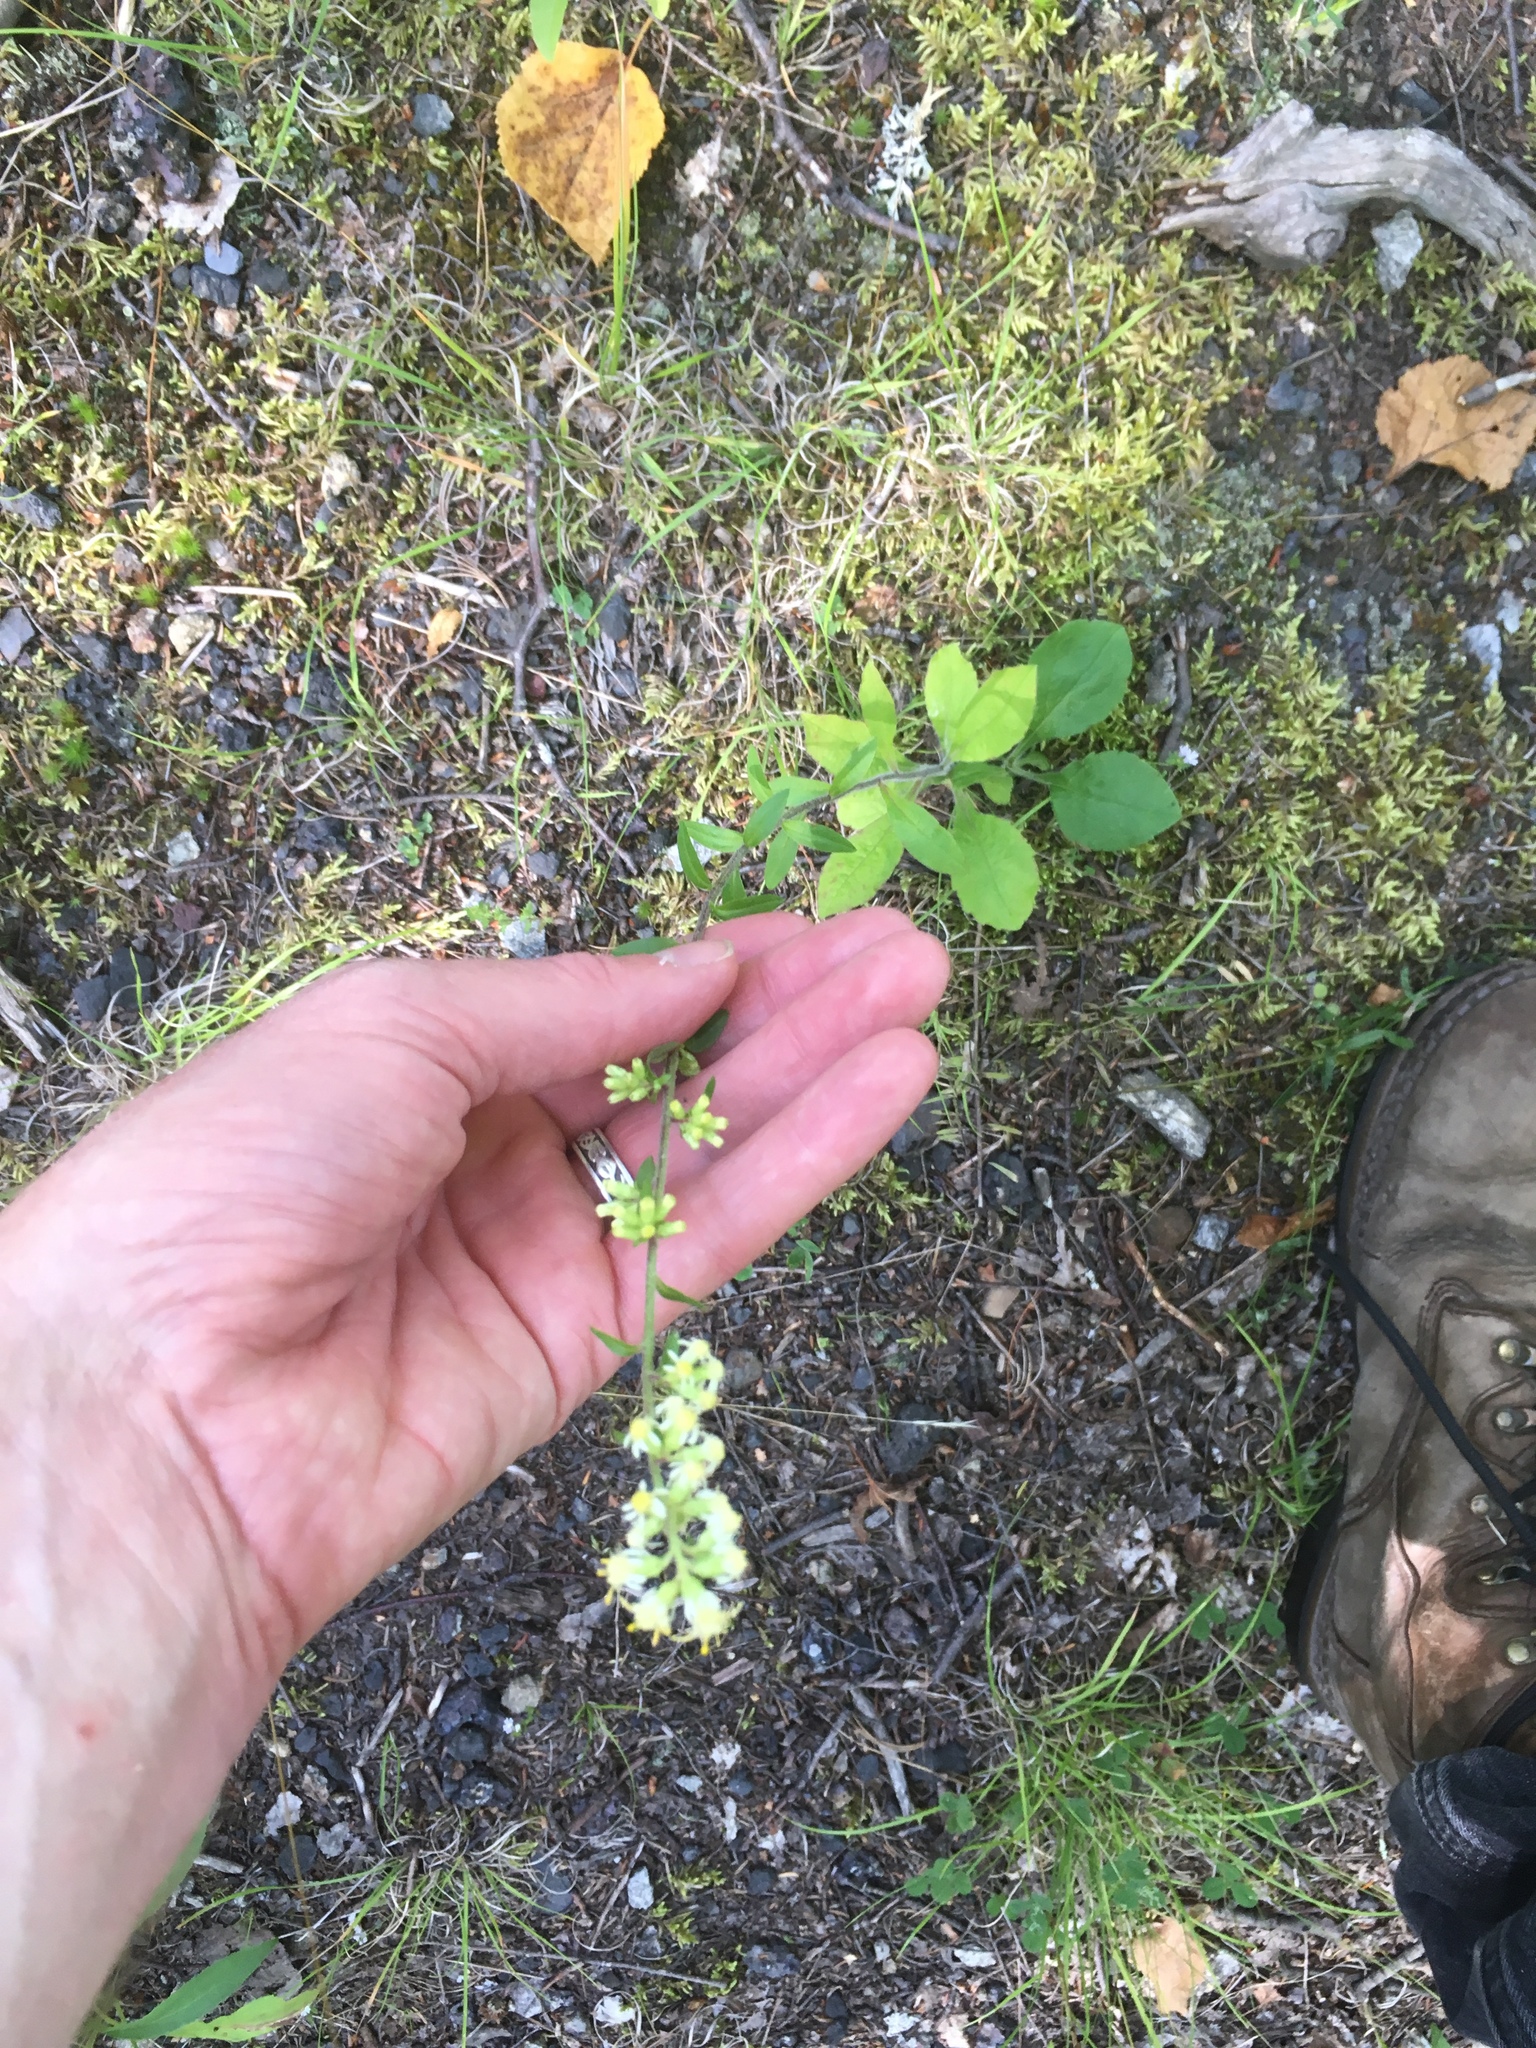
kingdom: Plantae
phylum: Tracheophyta
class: Magnoliopsida
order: Asterales
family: Asteraceae
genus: Solidago
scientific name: Solidago bicolor
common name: Silverrod
